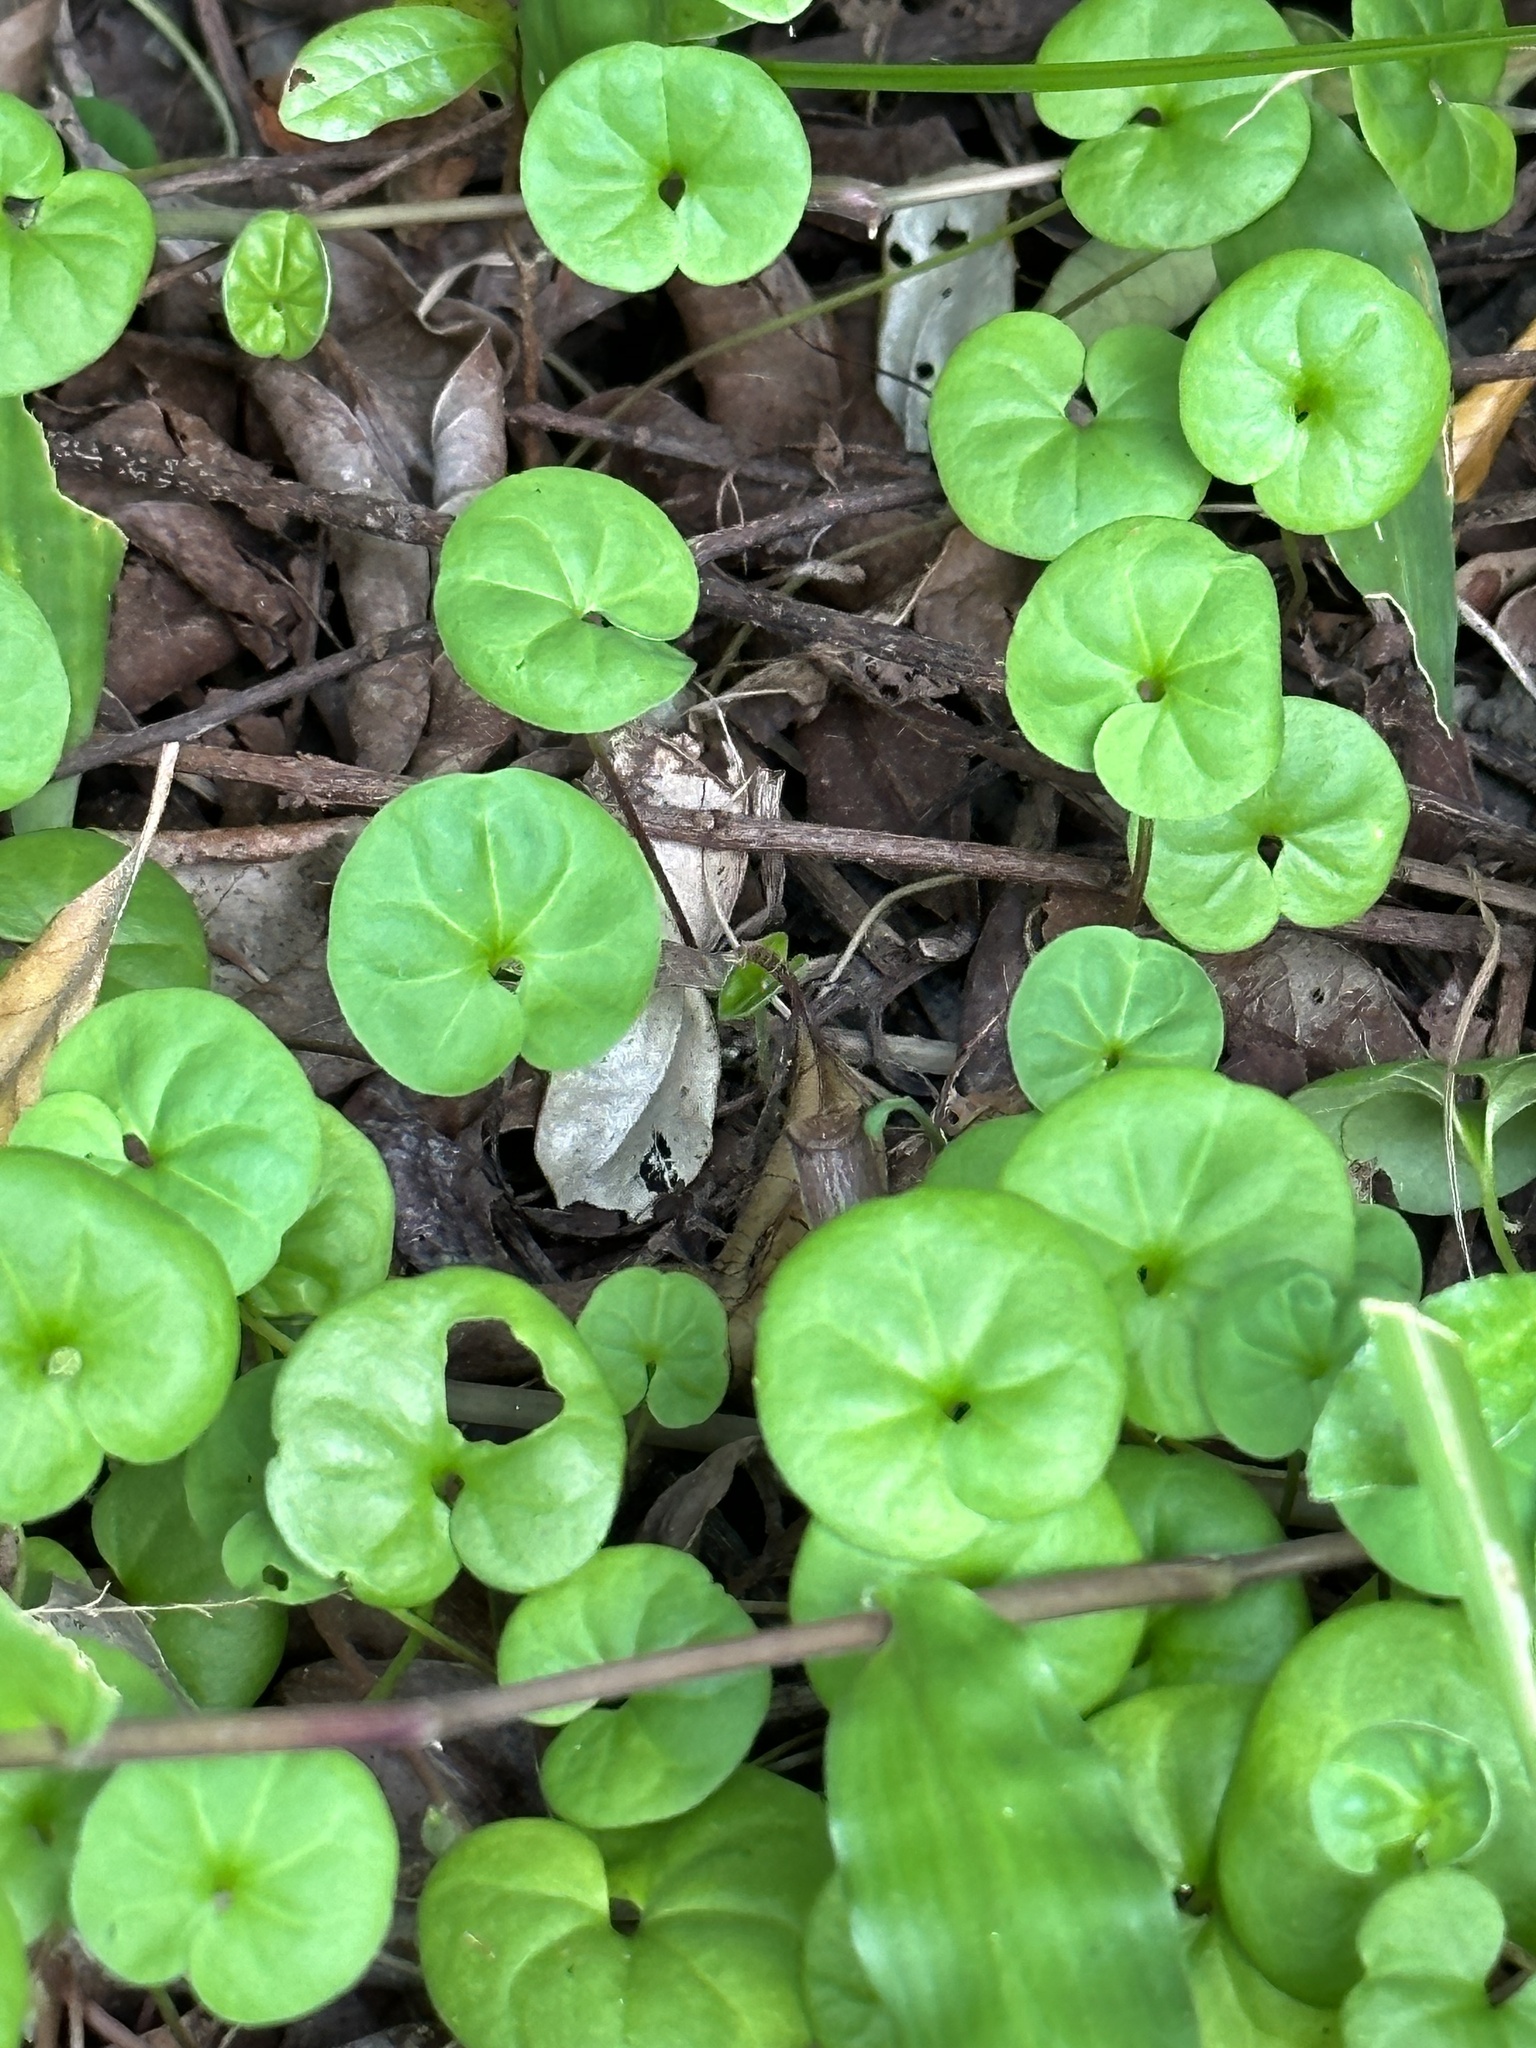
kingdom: Plantae
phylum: Tracheophyta
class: Magnoliopsida
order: Solanales
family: Convolvulaceae
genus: Dichondra
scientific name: Dichondra micrantha
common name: Kidneyweed
